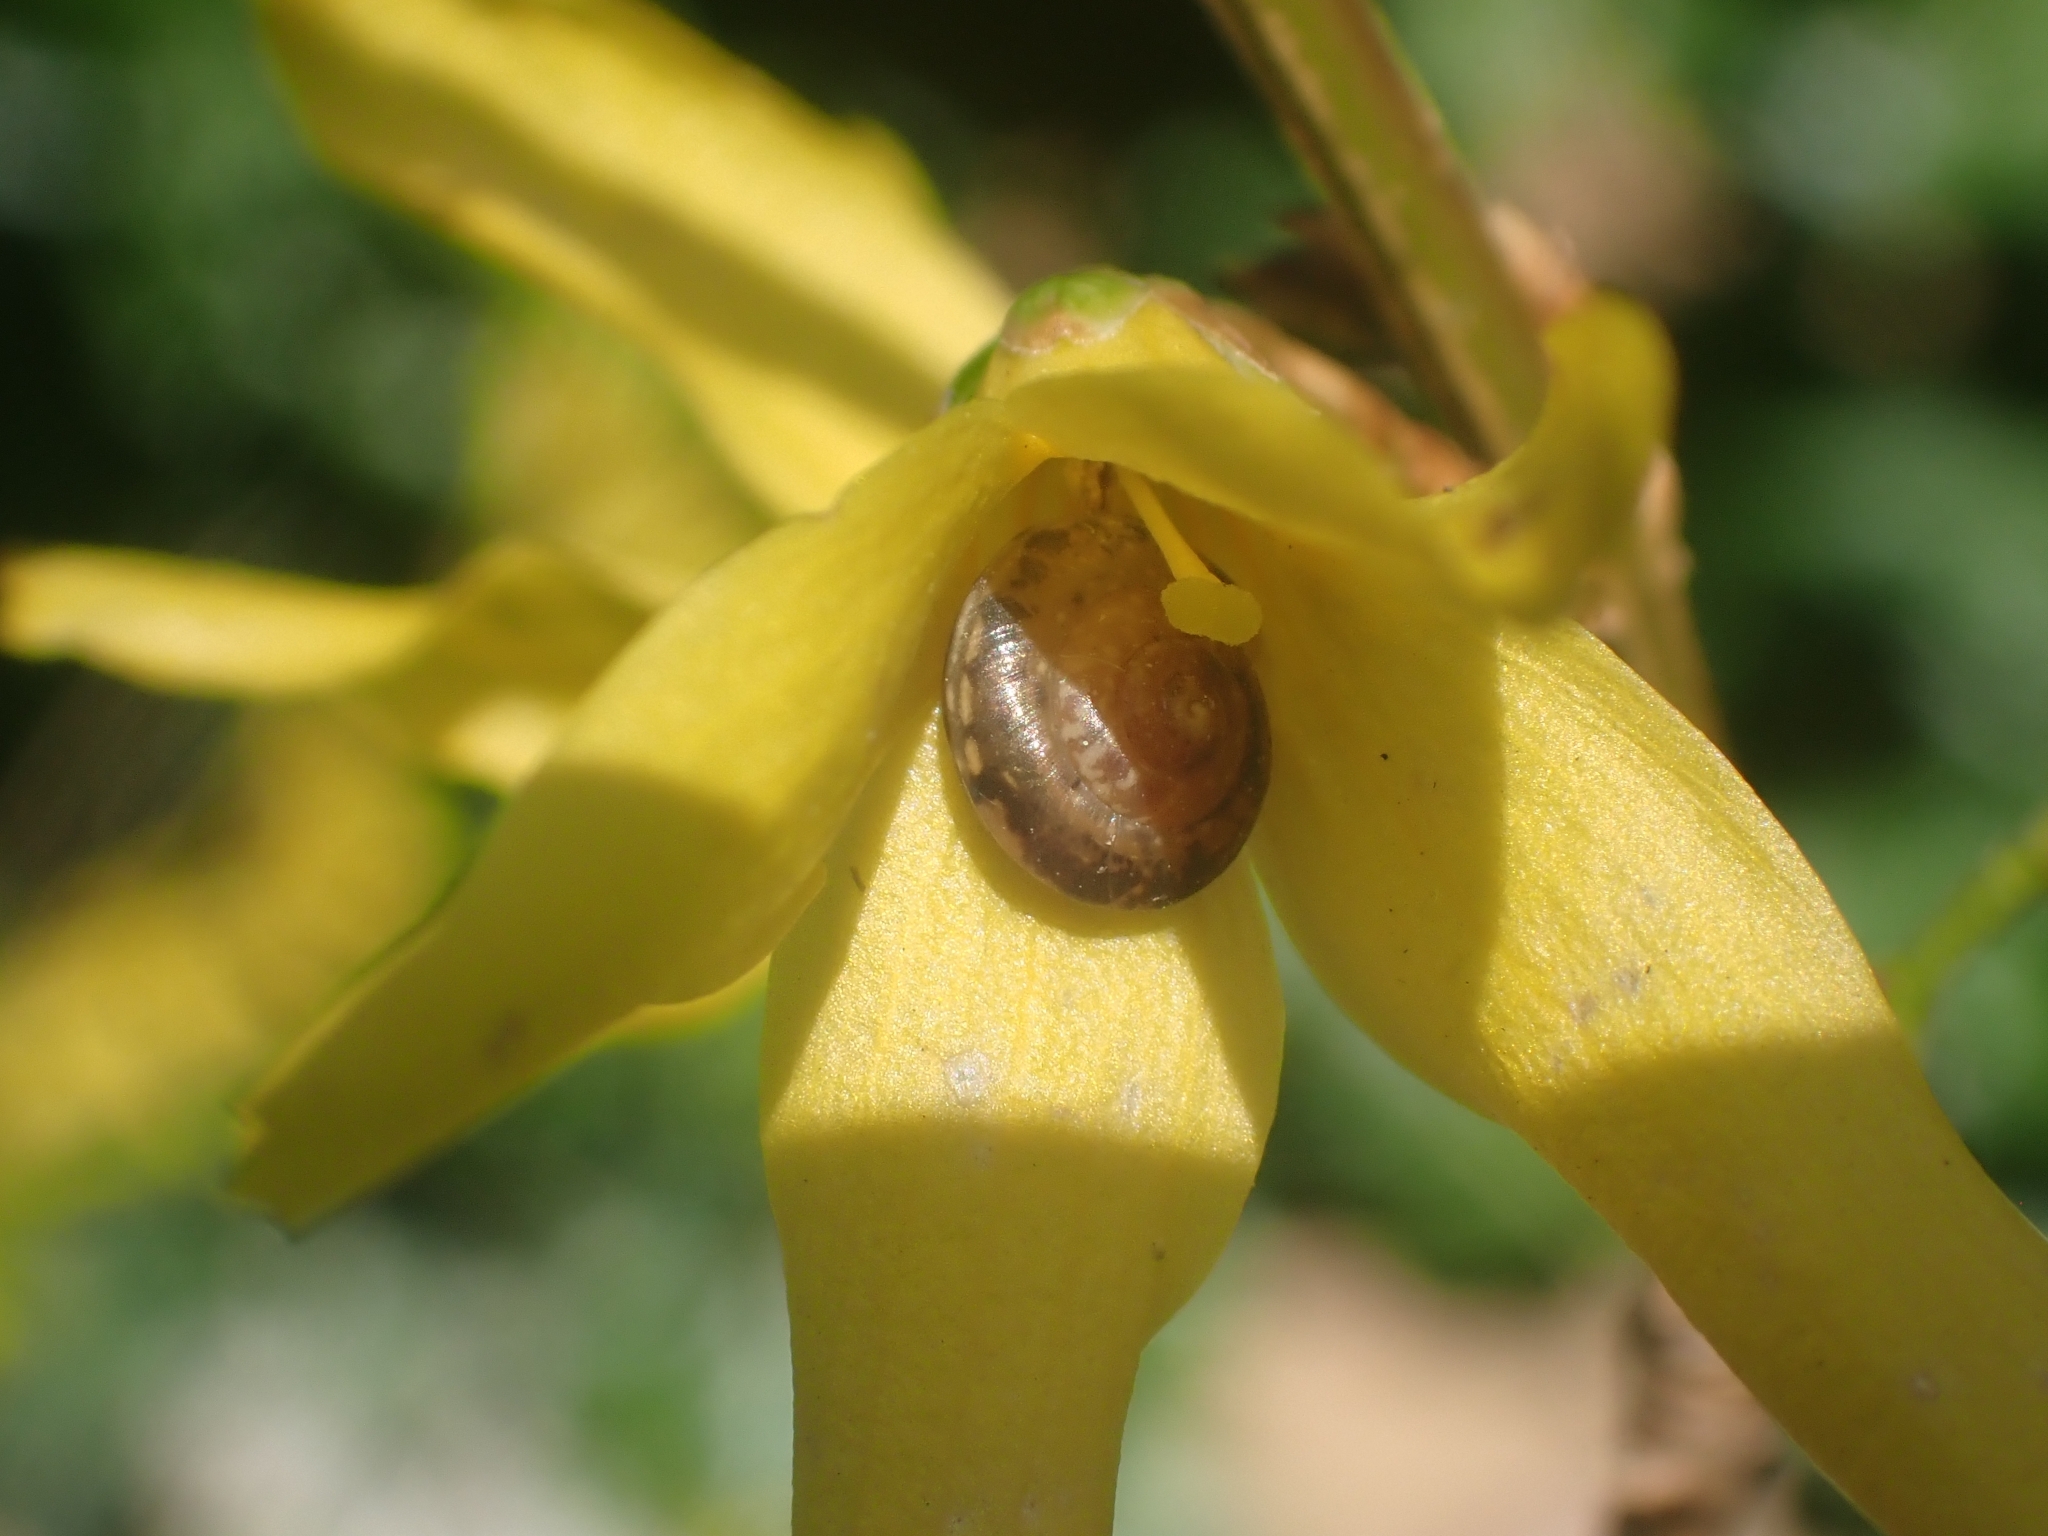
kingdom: Animalia
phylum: Mollusca
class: Gastropoda
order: Stylommatophora
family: Hygromiidae
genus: Hygromia
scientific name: Hygromia cinctella
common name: Girdled snail
